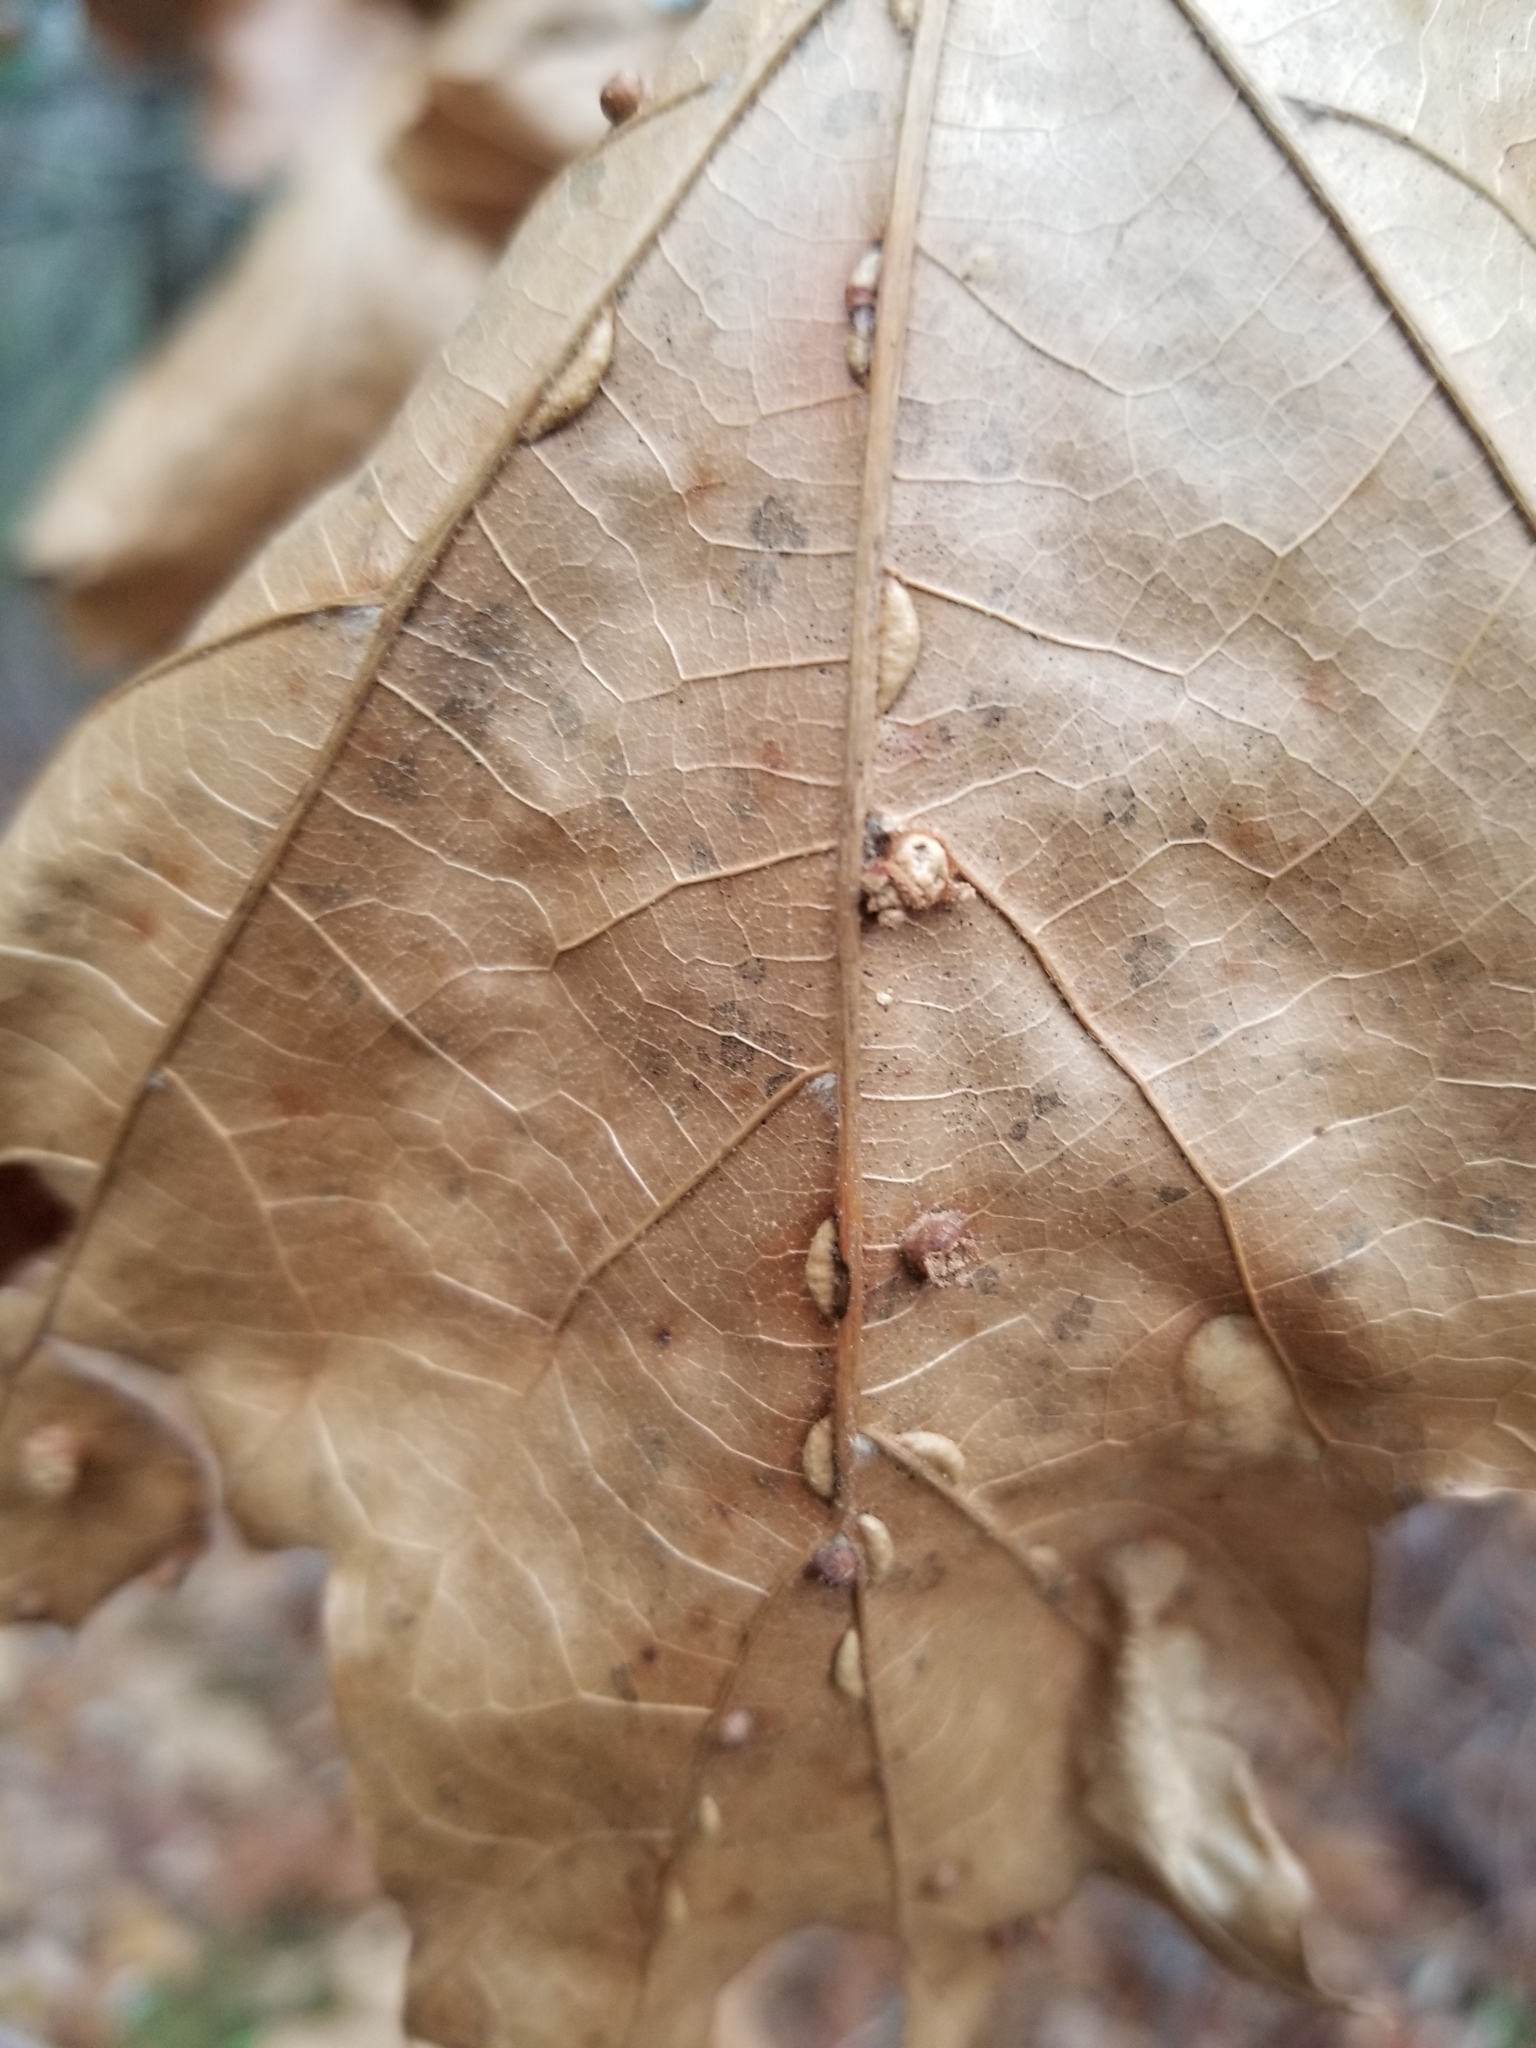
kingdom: Animalia
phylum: Arthropoda
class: Insecta
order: Diptera
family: Cecidomyiidae
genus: Macrodiplosis
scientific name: Macrodiplosis q-orucum
